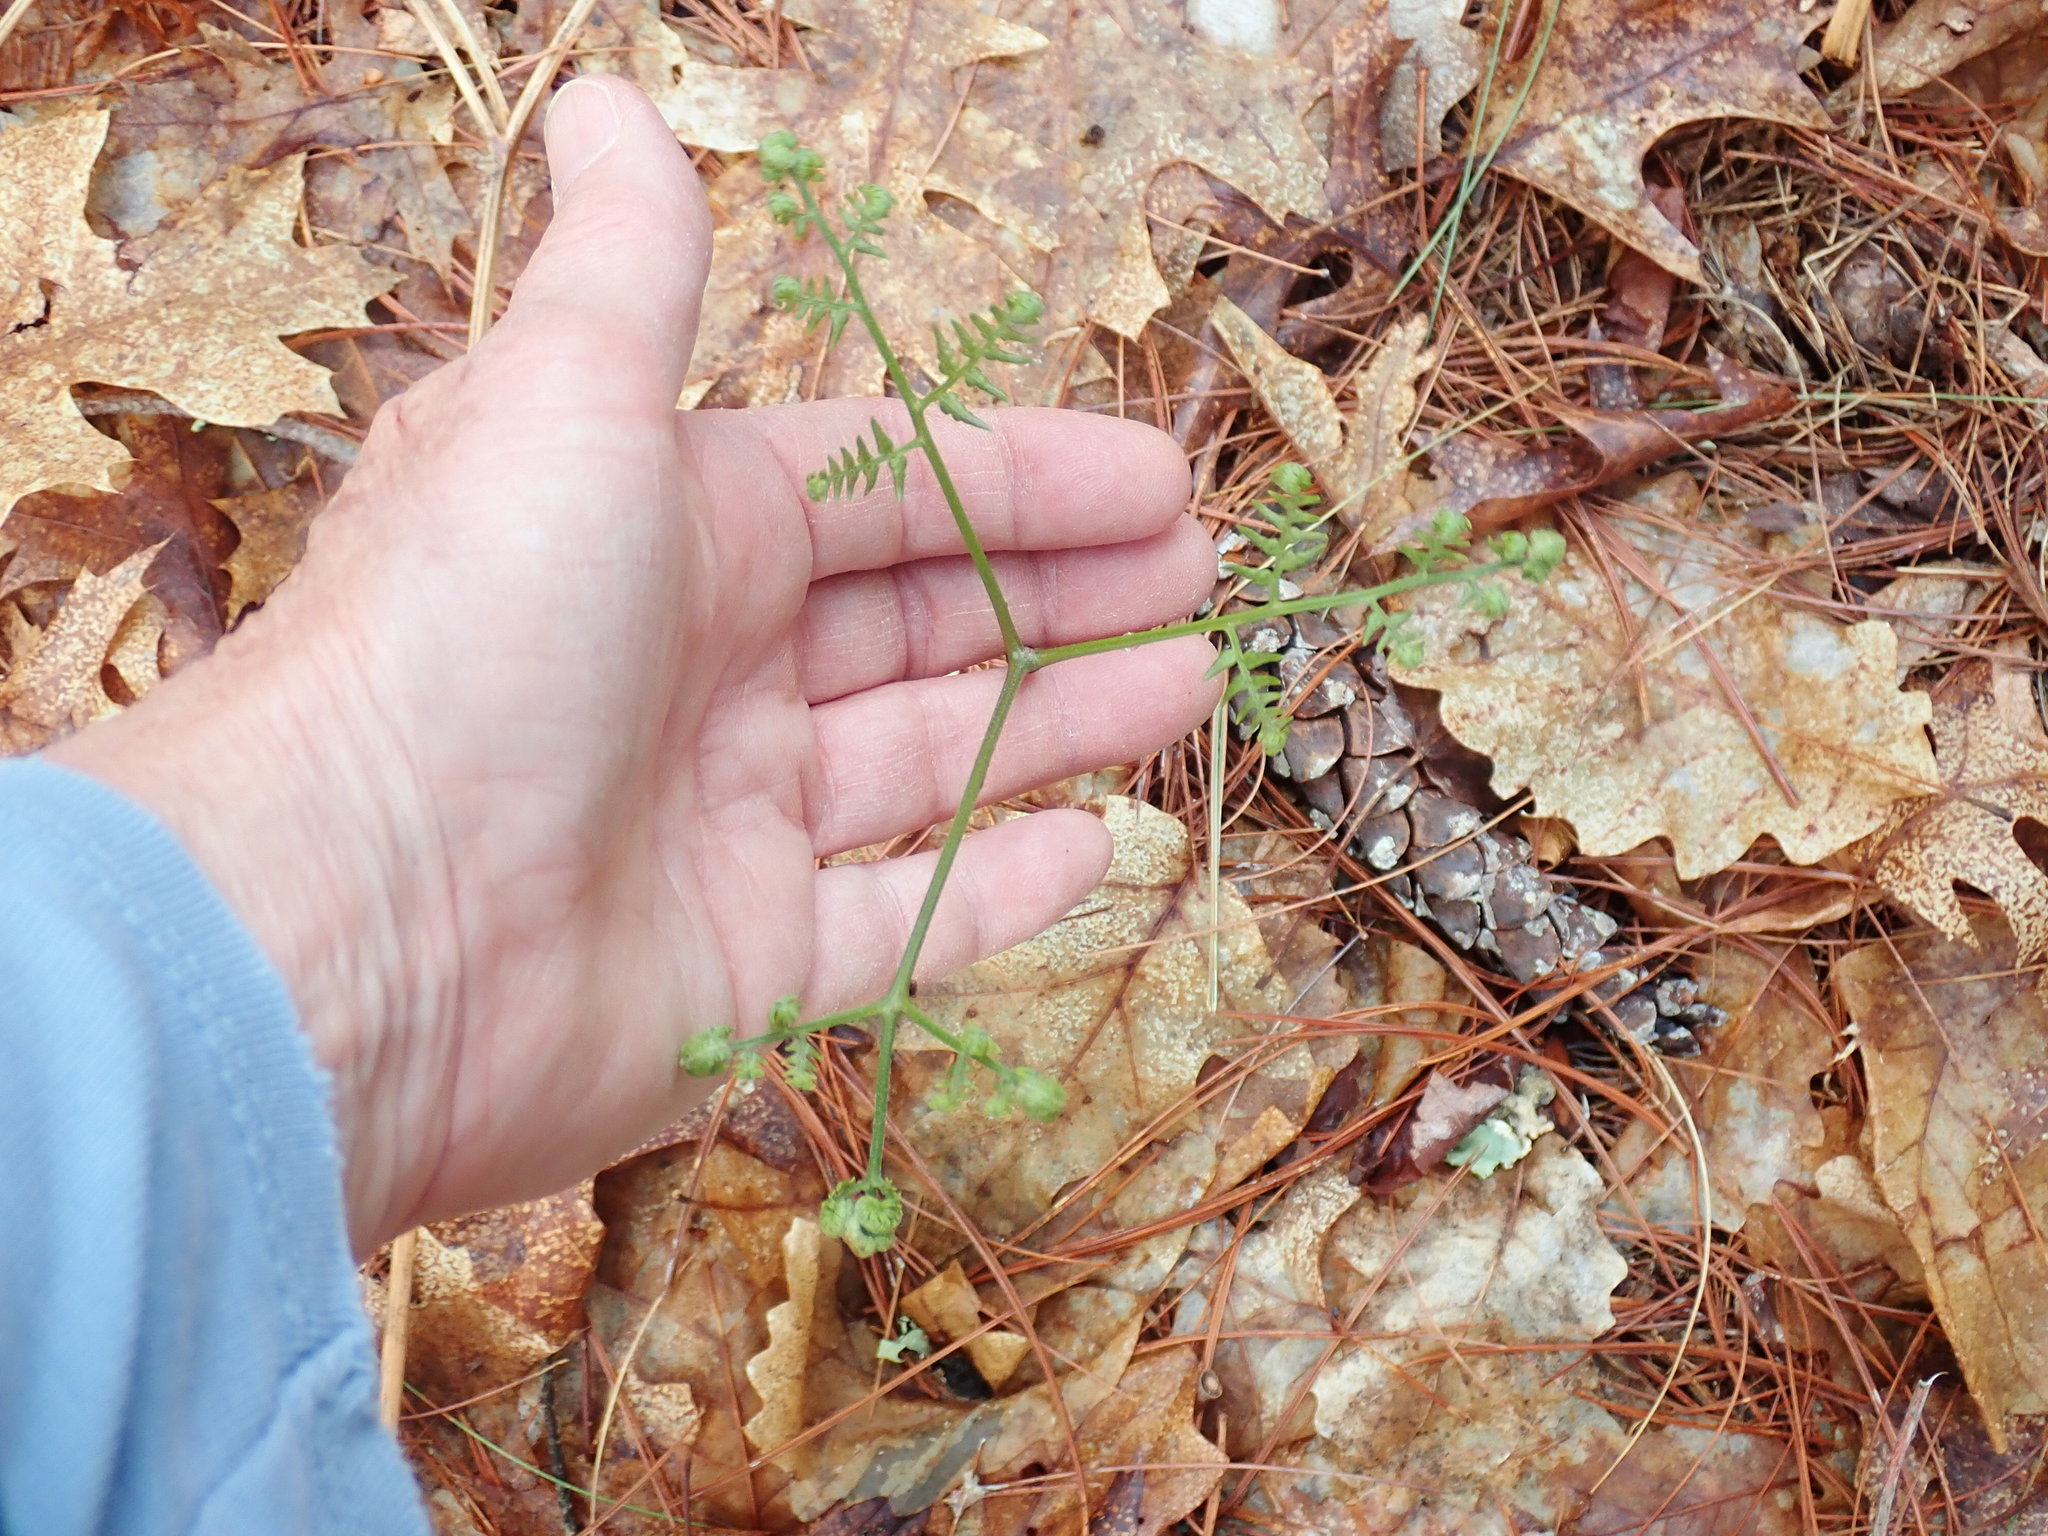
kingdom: Plantae
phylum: Tracheophyta
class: Polypodiopsida
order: Polypodiales
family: Dennstaedtiaceae
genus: Pteridium
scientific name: Pteridium aquilinum
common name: Bracken
